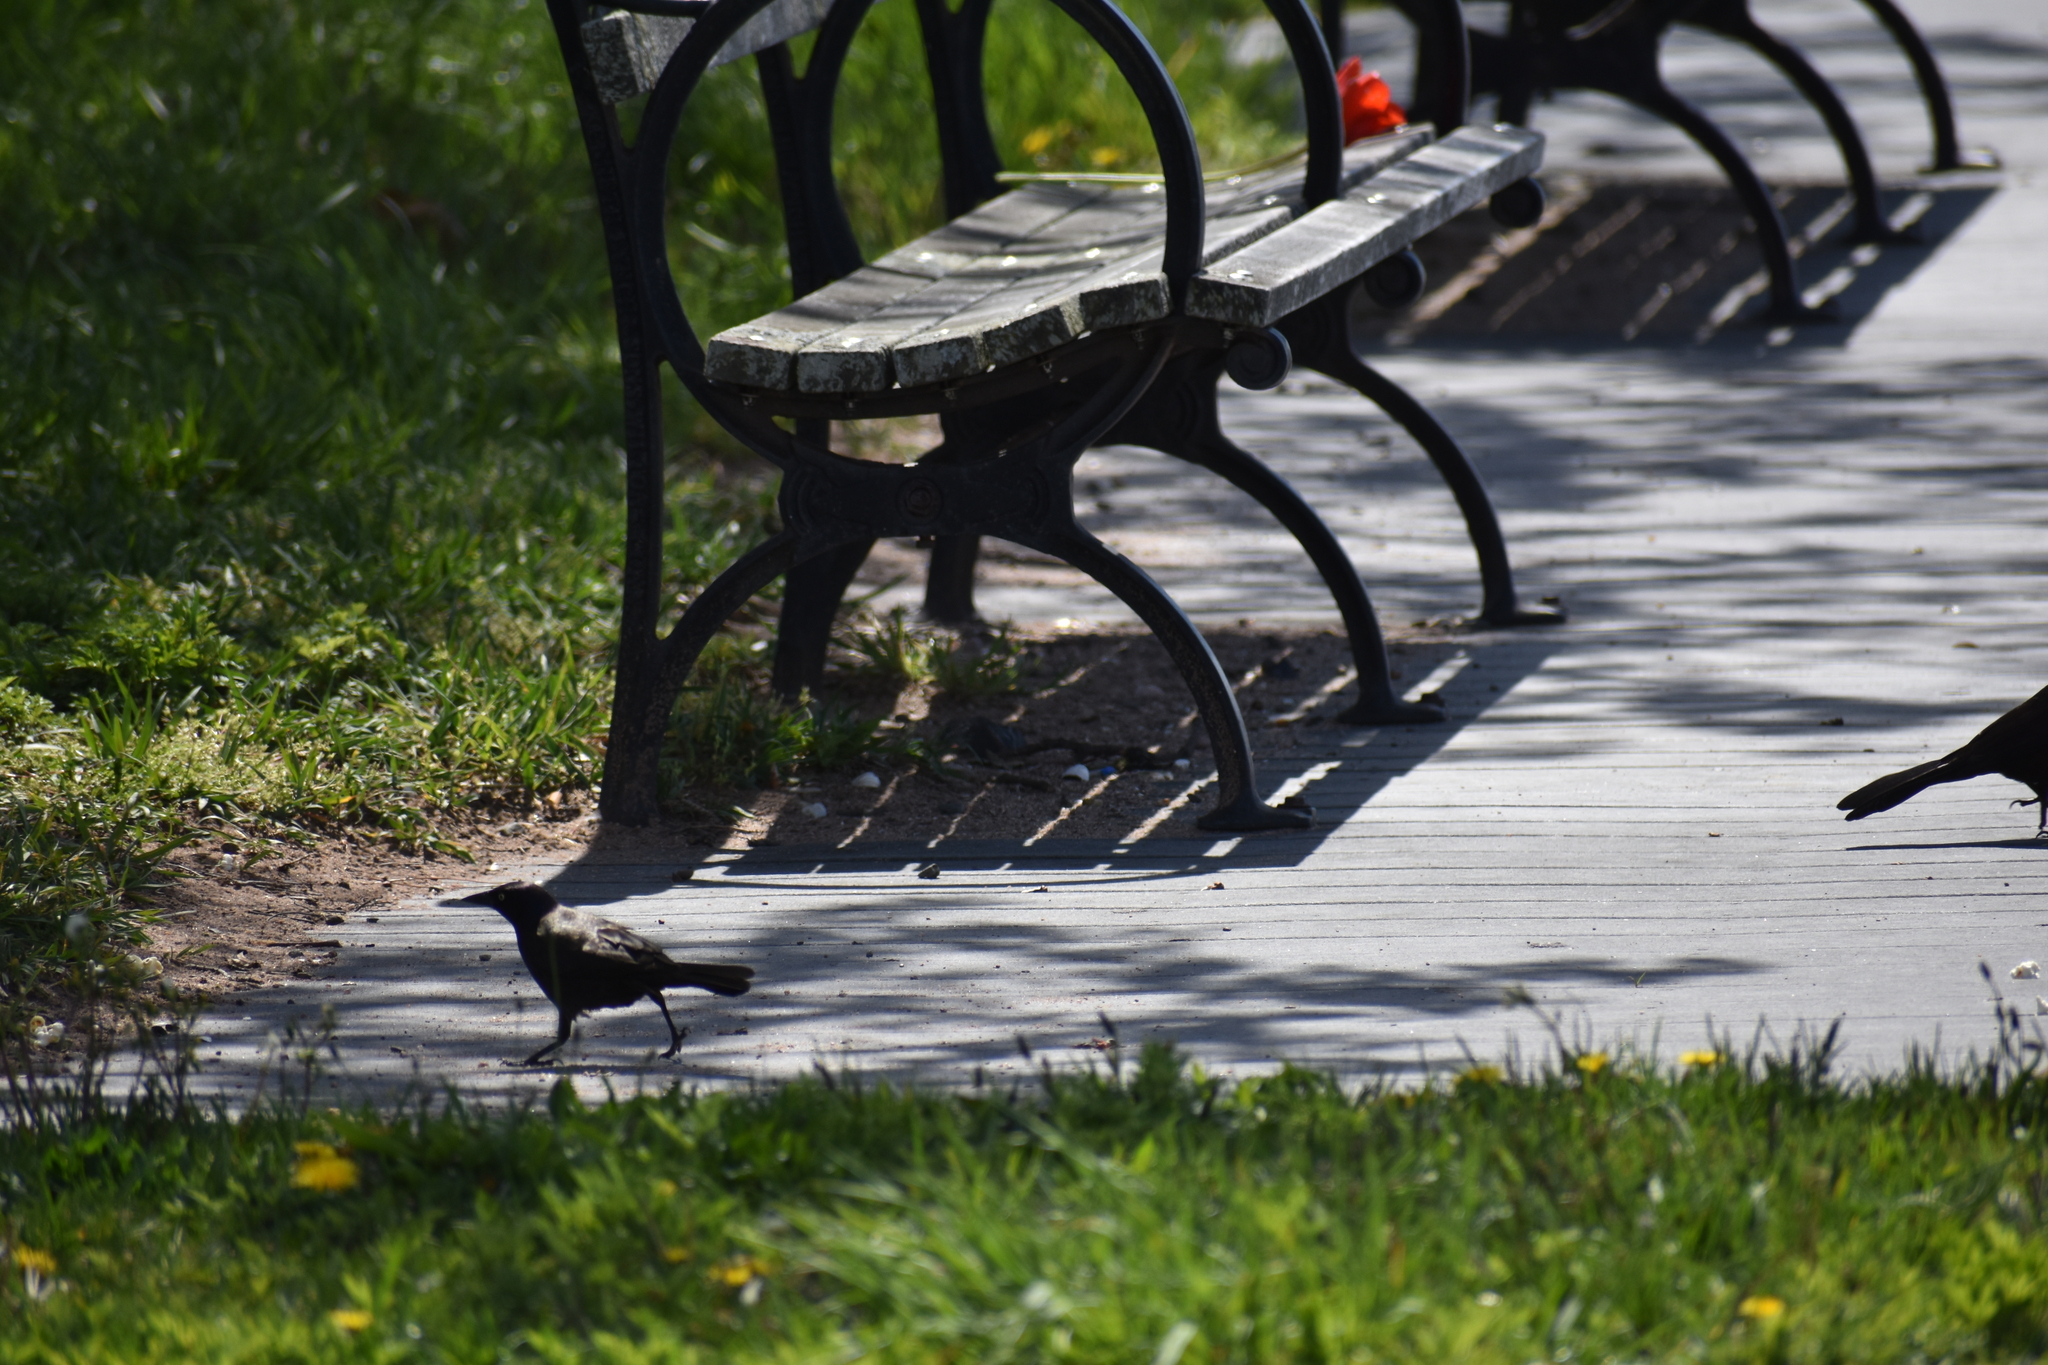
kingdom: Animalia
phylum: Chordata
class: Aves
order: Passeriformes
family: Icteridae
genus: Quiscalus
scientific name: Quiscalus quiscula
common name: Common grackle
